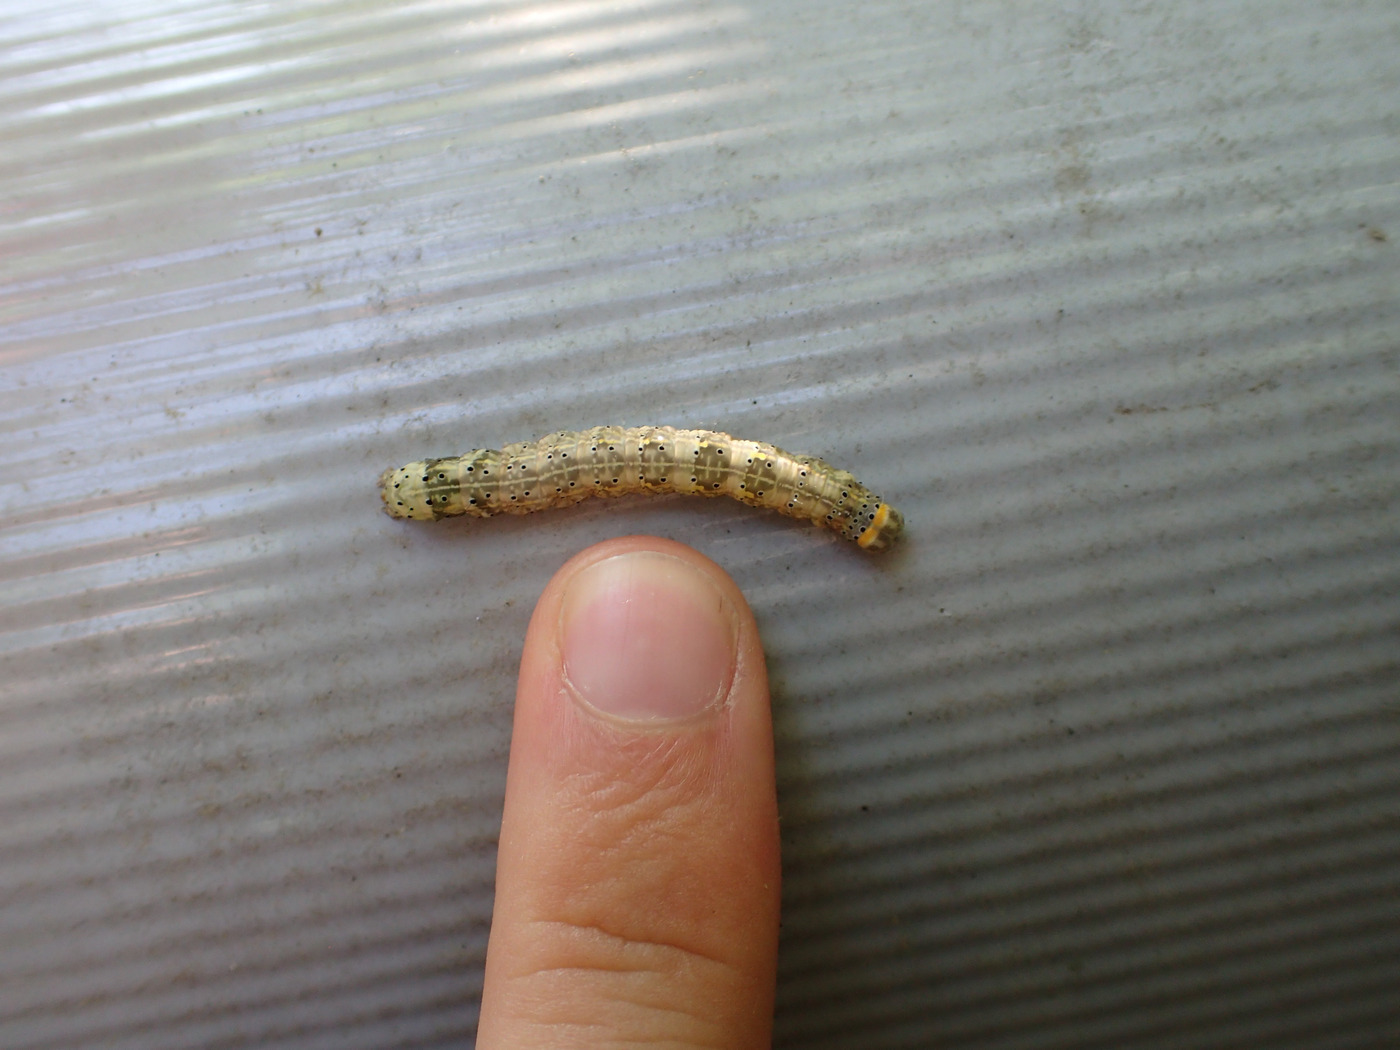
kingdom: Animalia
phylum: Arthropoda
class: Insecta
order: Lepidoptera
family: Erebidae
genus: Rusicada
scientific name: Rusicada privata
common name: Hibiscus leaf caterpillar moth
